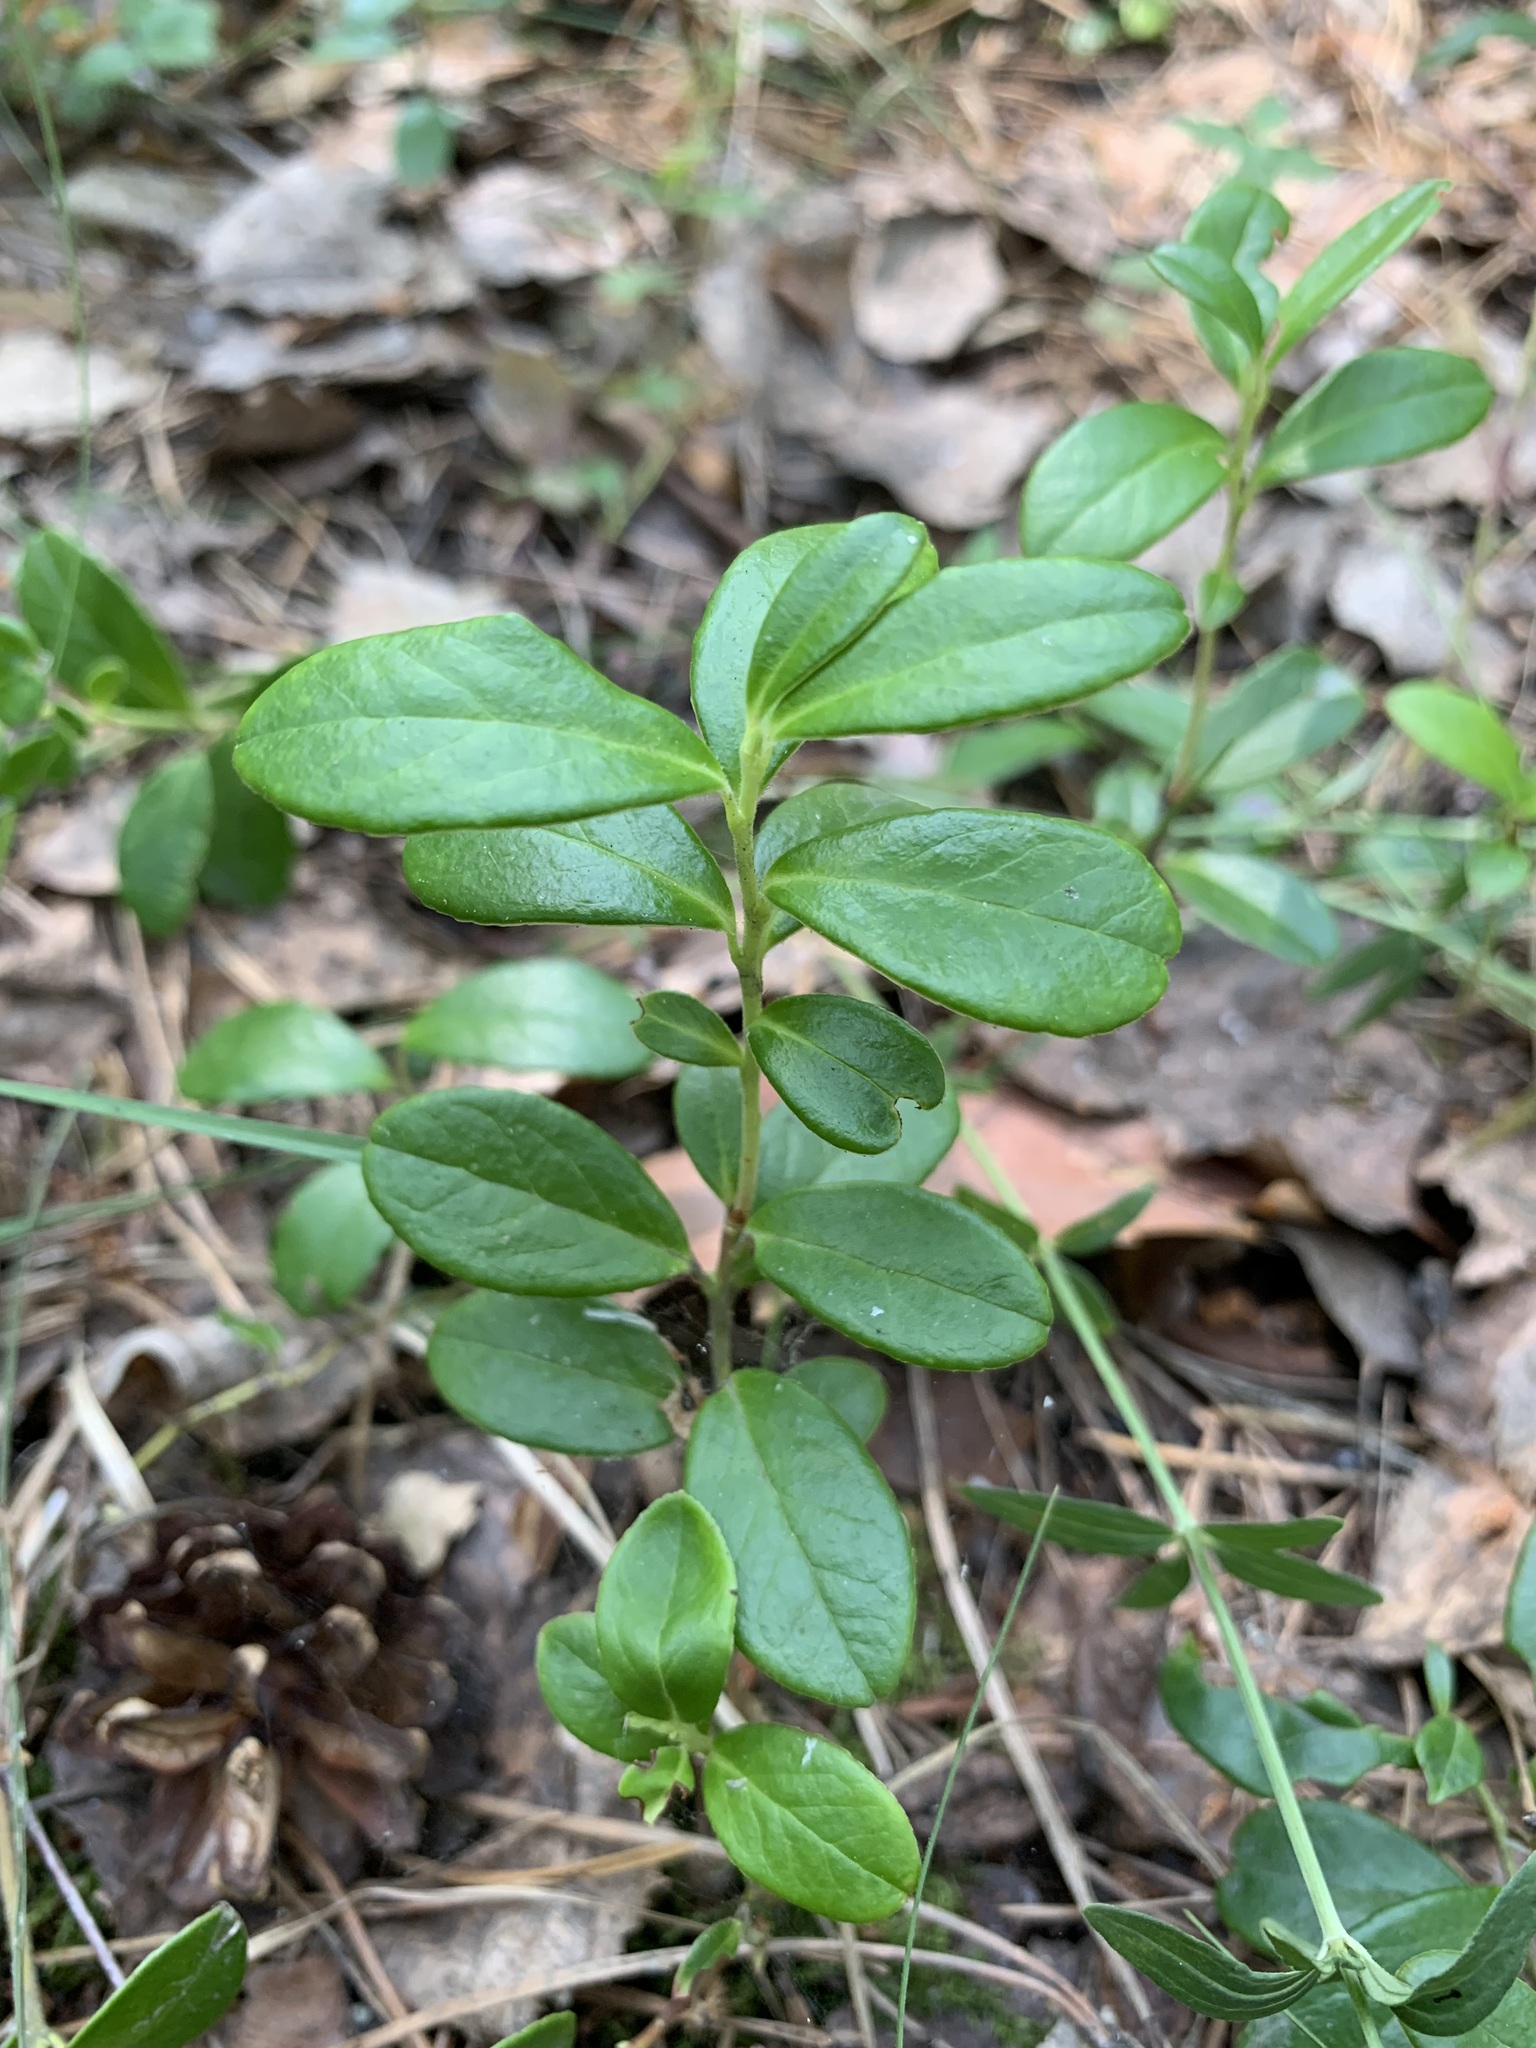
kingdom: Plantae
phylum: Tracheophyta
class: Magnoliopsida
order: Ericales
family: Ericaceae
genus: Vaccinium
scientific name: Vaccinium vitis-idaea
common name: Cowberry
